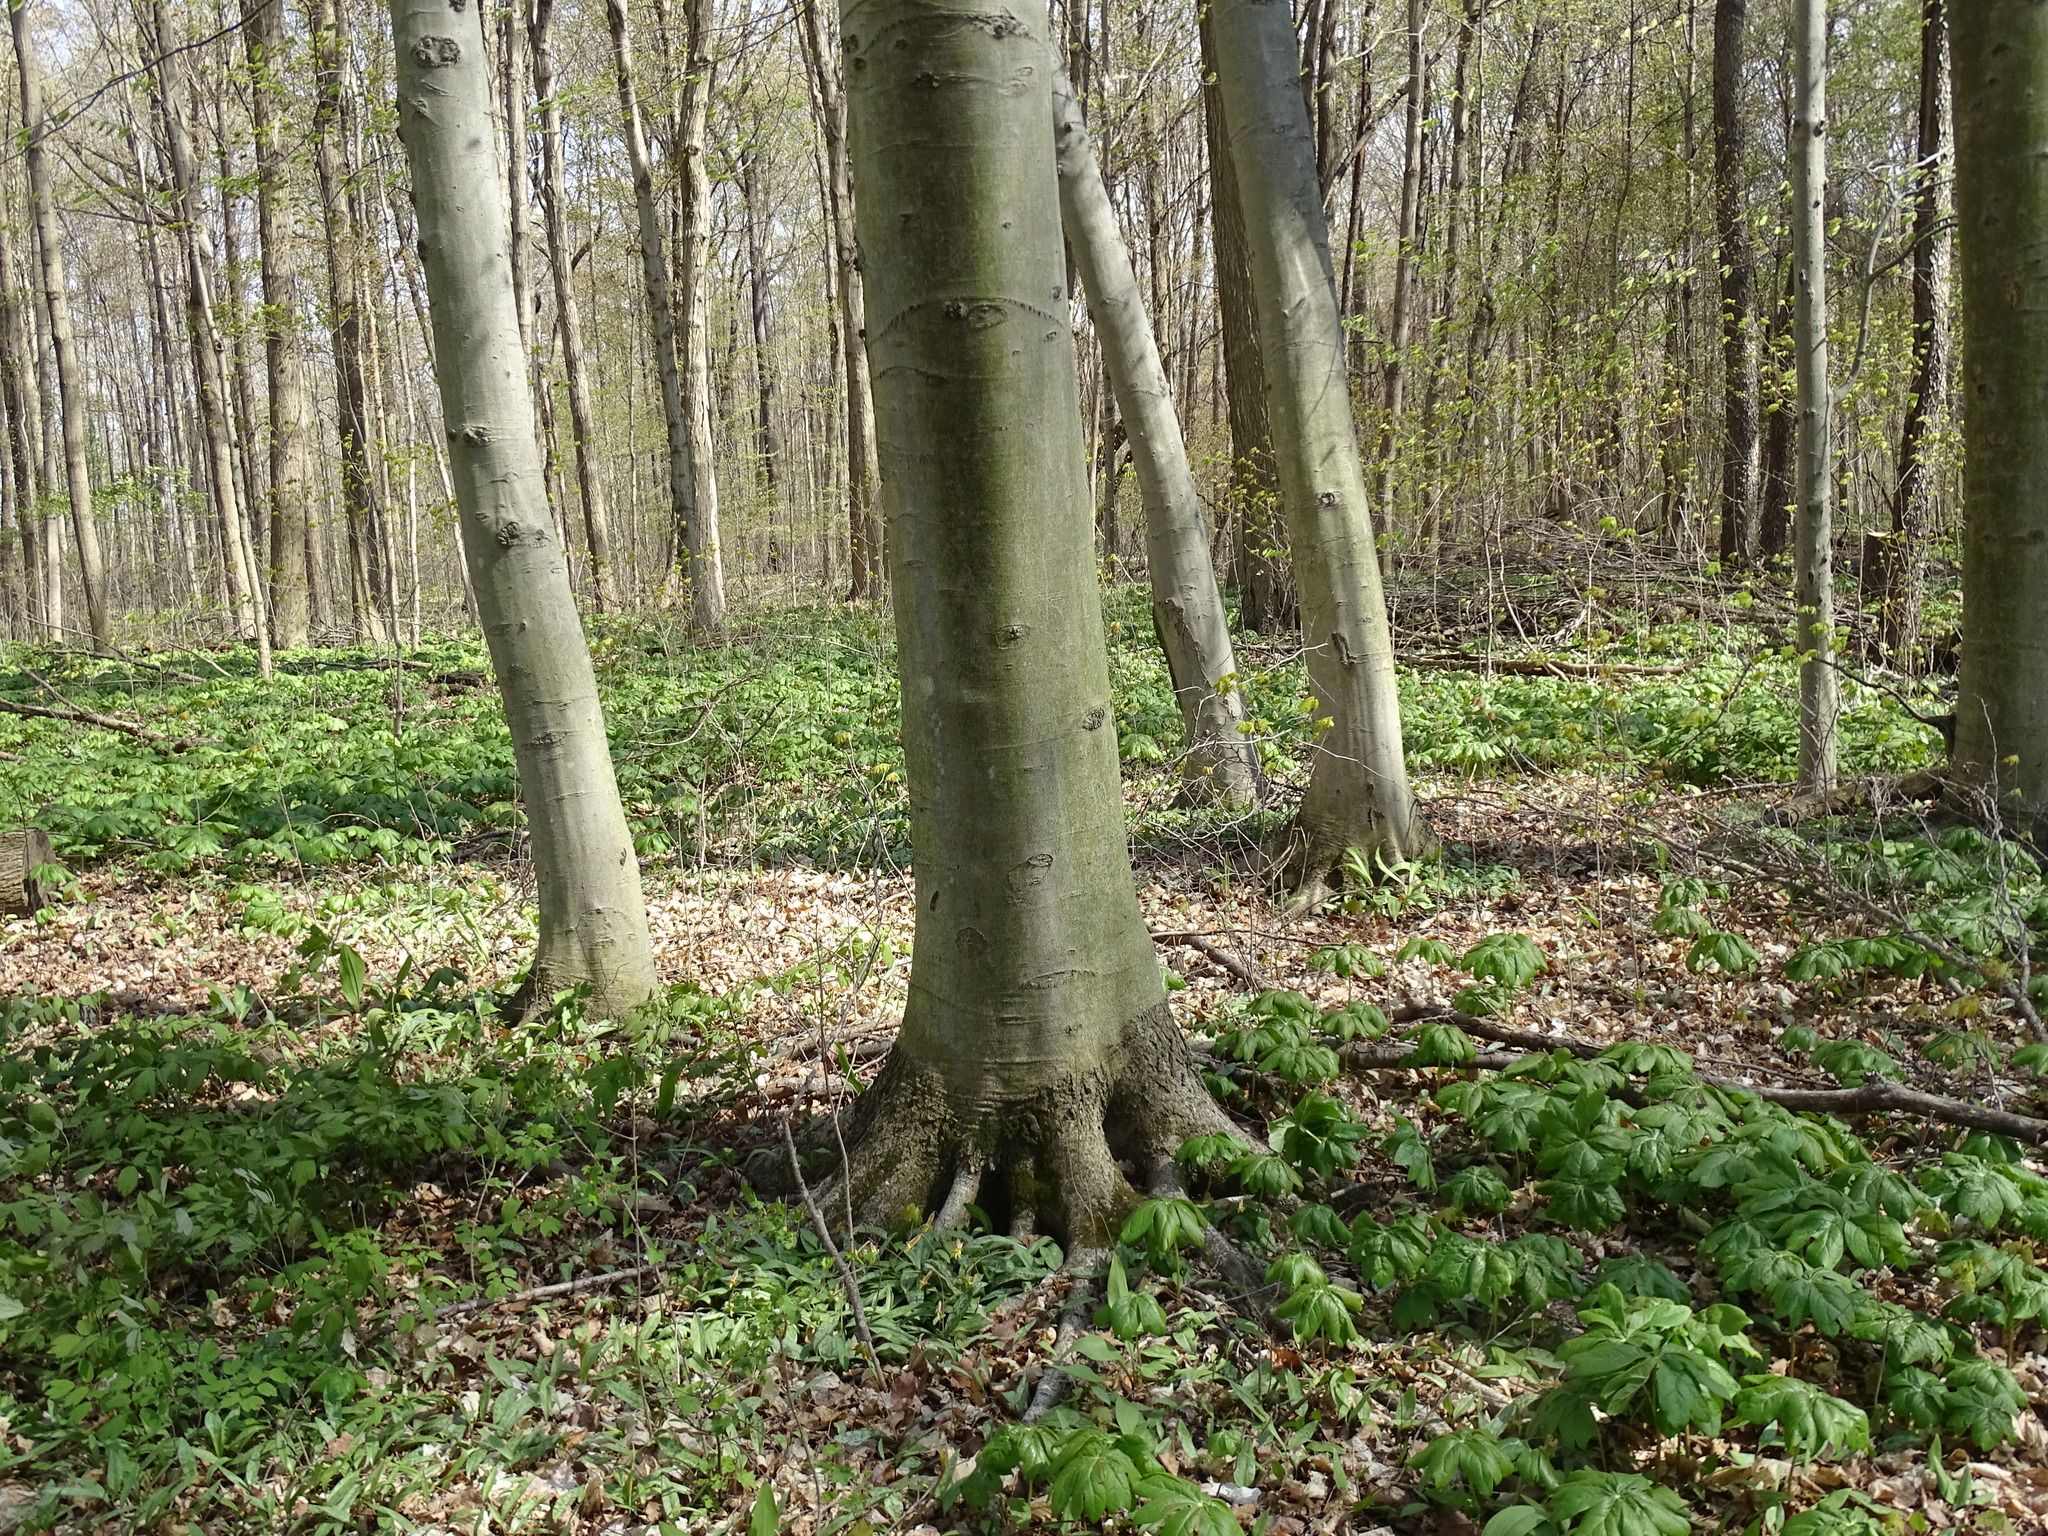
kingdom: Plantae
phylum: Tracheophyta
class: Magnoliopsida
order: Fagales
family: Fagaceae
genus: Fagus
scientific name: Fagus grandifolia
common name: American beech
